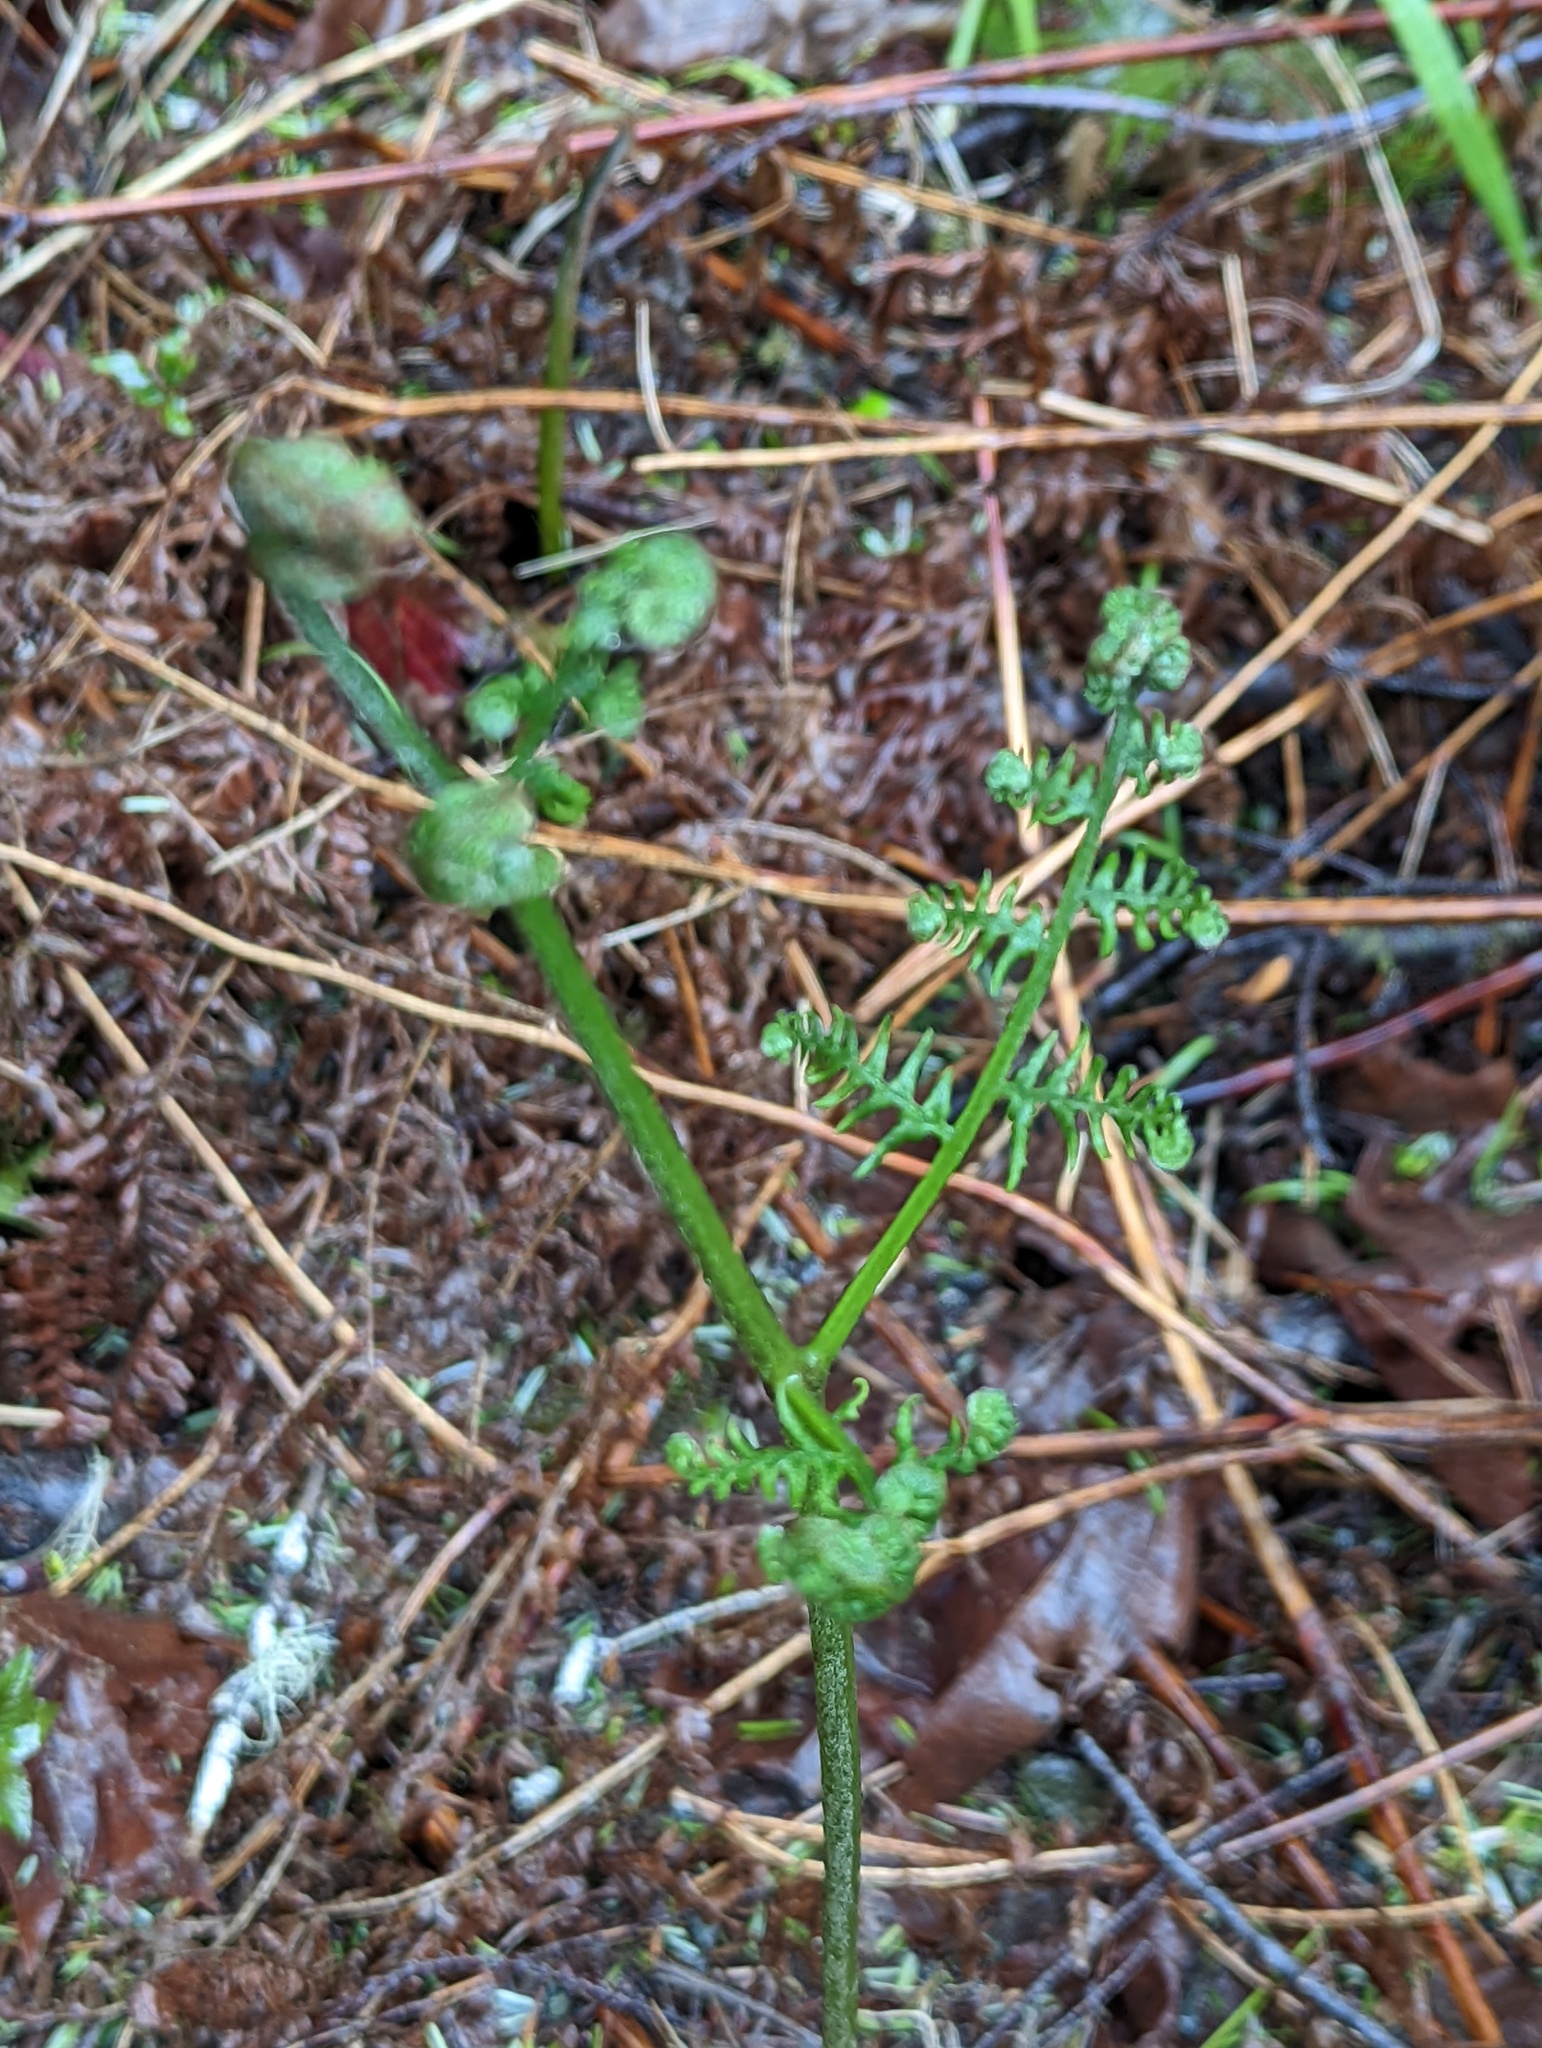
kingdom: Plantae
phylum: Tracheophyta
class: Polypodiopsida
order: Polypodiales
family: Dennstaedtiaceae
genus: Pteridium
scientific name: Pteridium aquilinum
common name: Bracken
